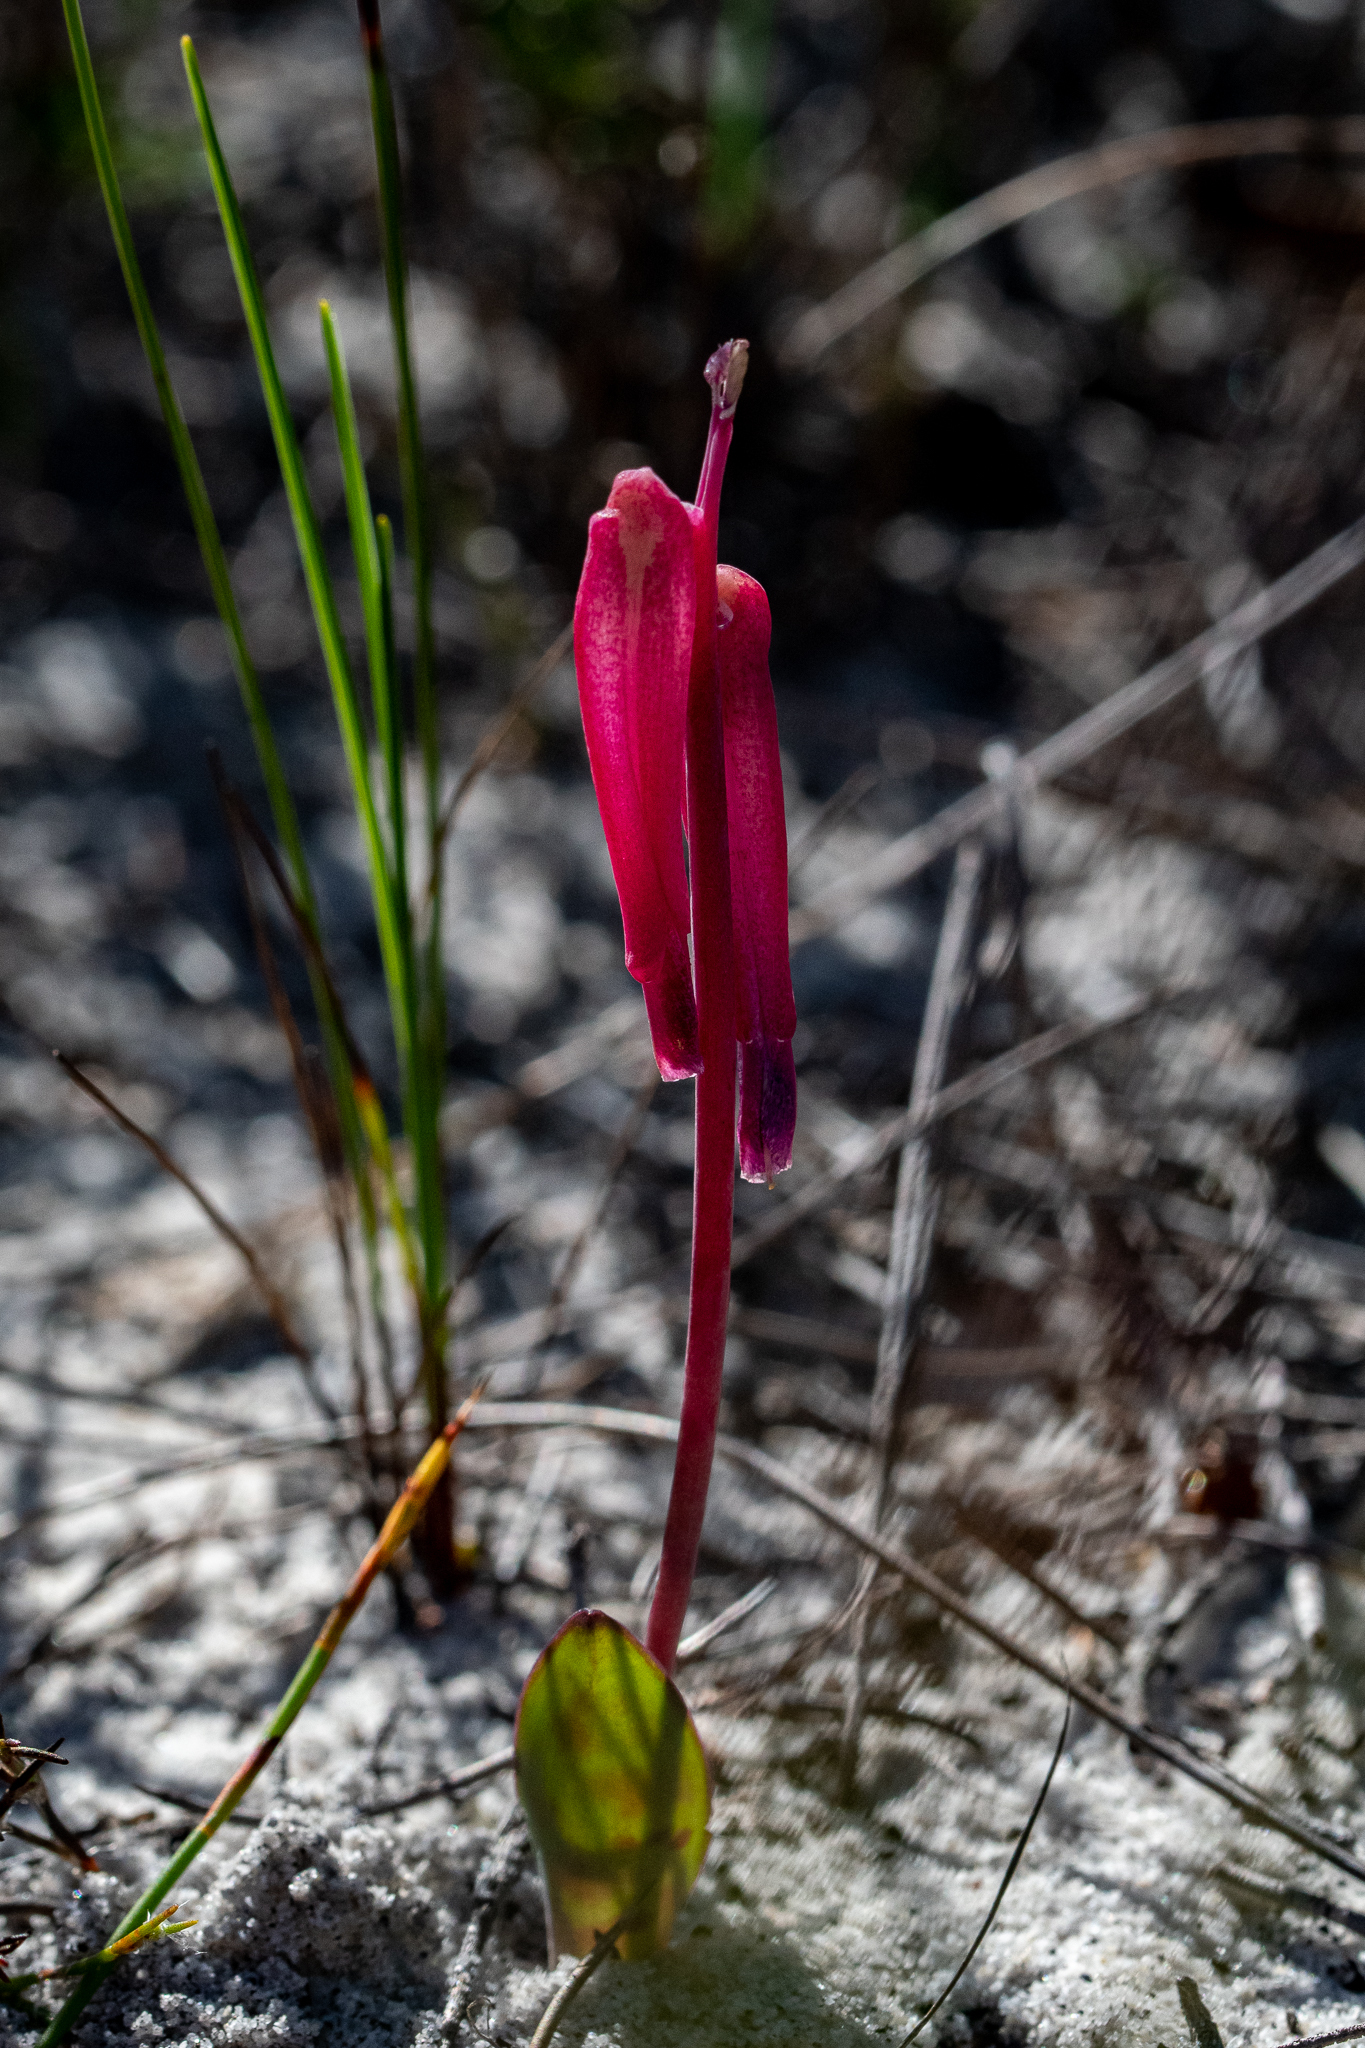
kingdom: Plantae
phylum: Tracheophyta
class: Liliopsida
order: Asparagales
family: Asparagaceae
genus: Lachenalia
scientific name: Lachenalia punctata
